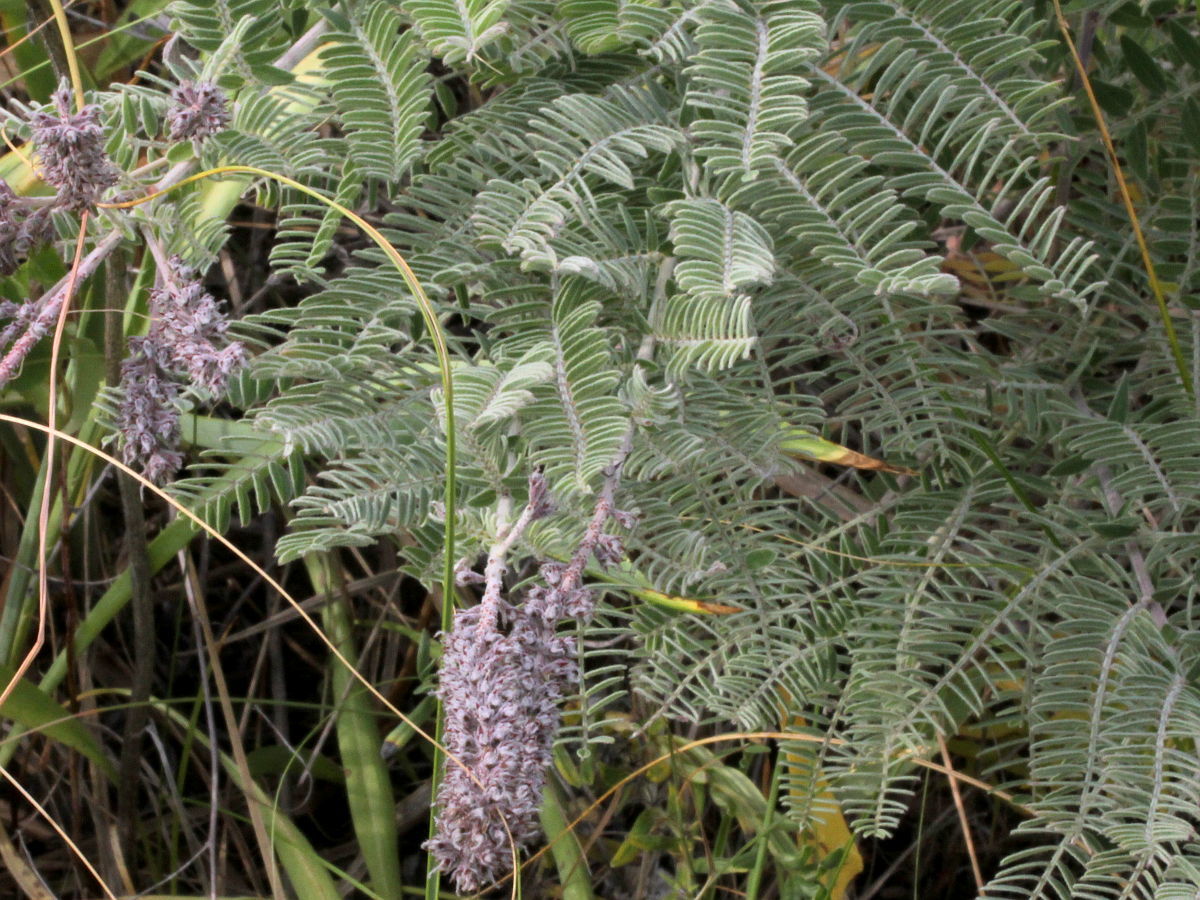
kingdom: Plantae
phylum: Tracheophyta
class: Magnoliopsida
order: Fabales
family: Fabaceae
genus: Amorpha
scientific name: Amorpha canescens
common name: Leadplant
